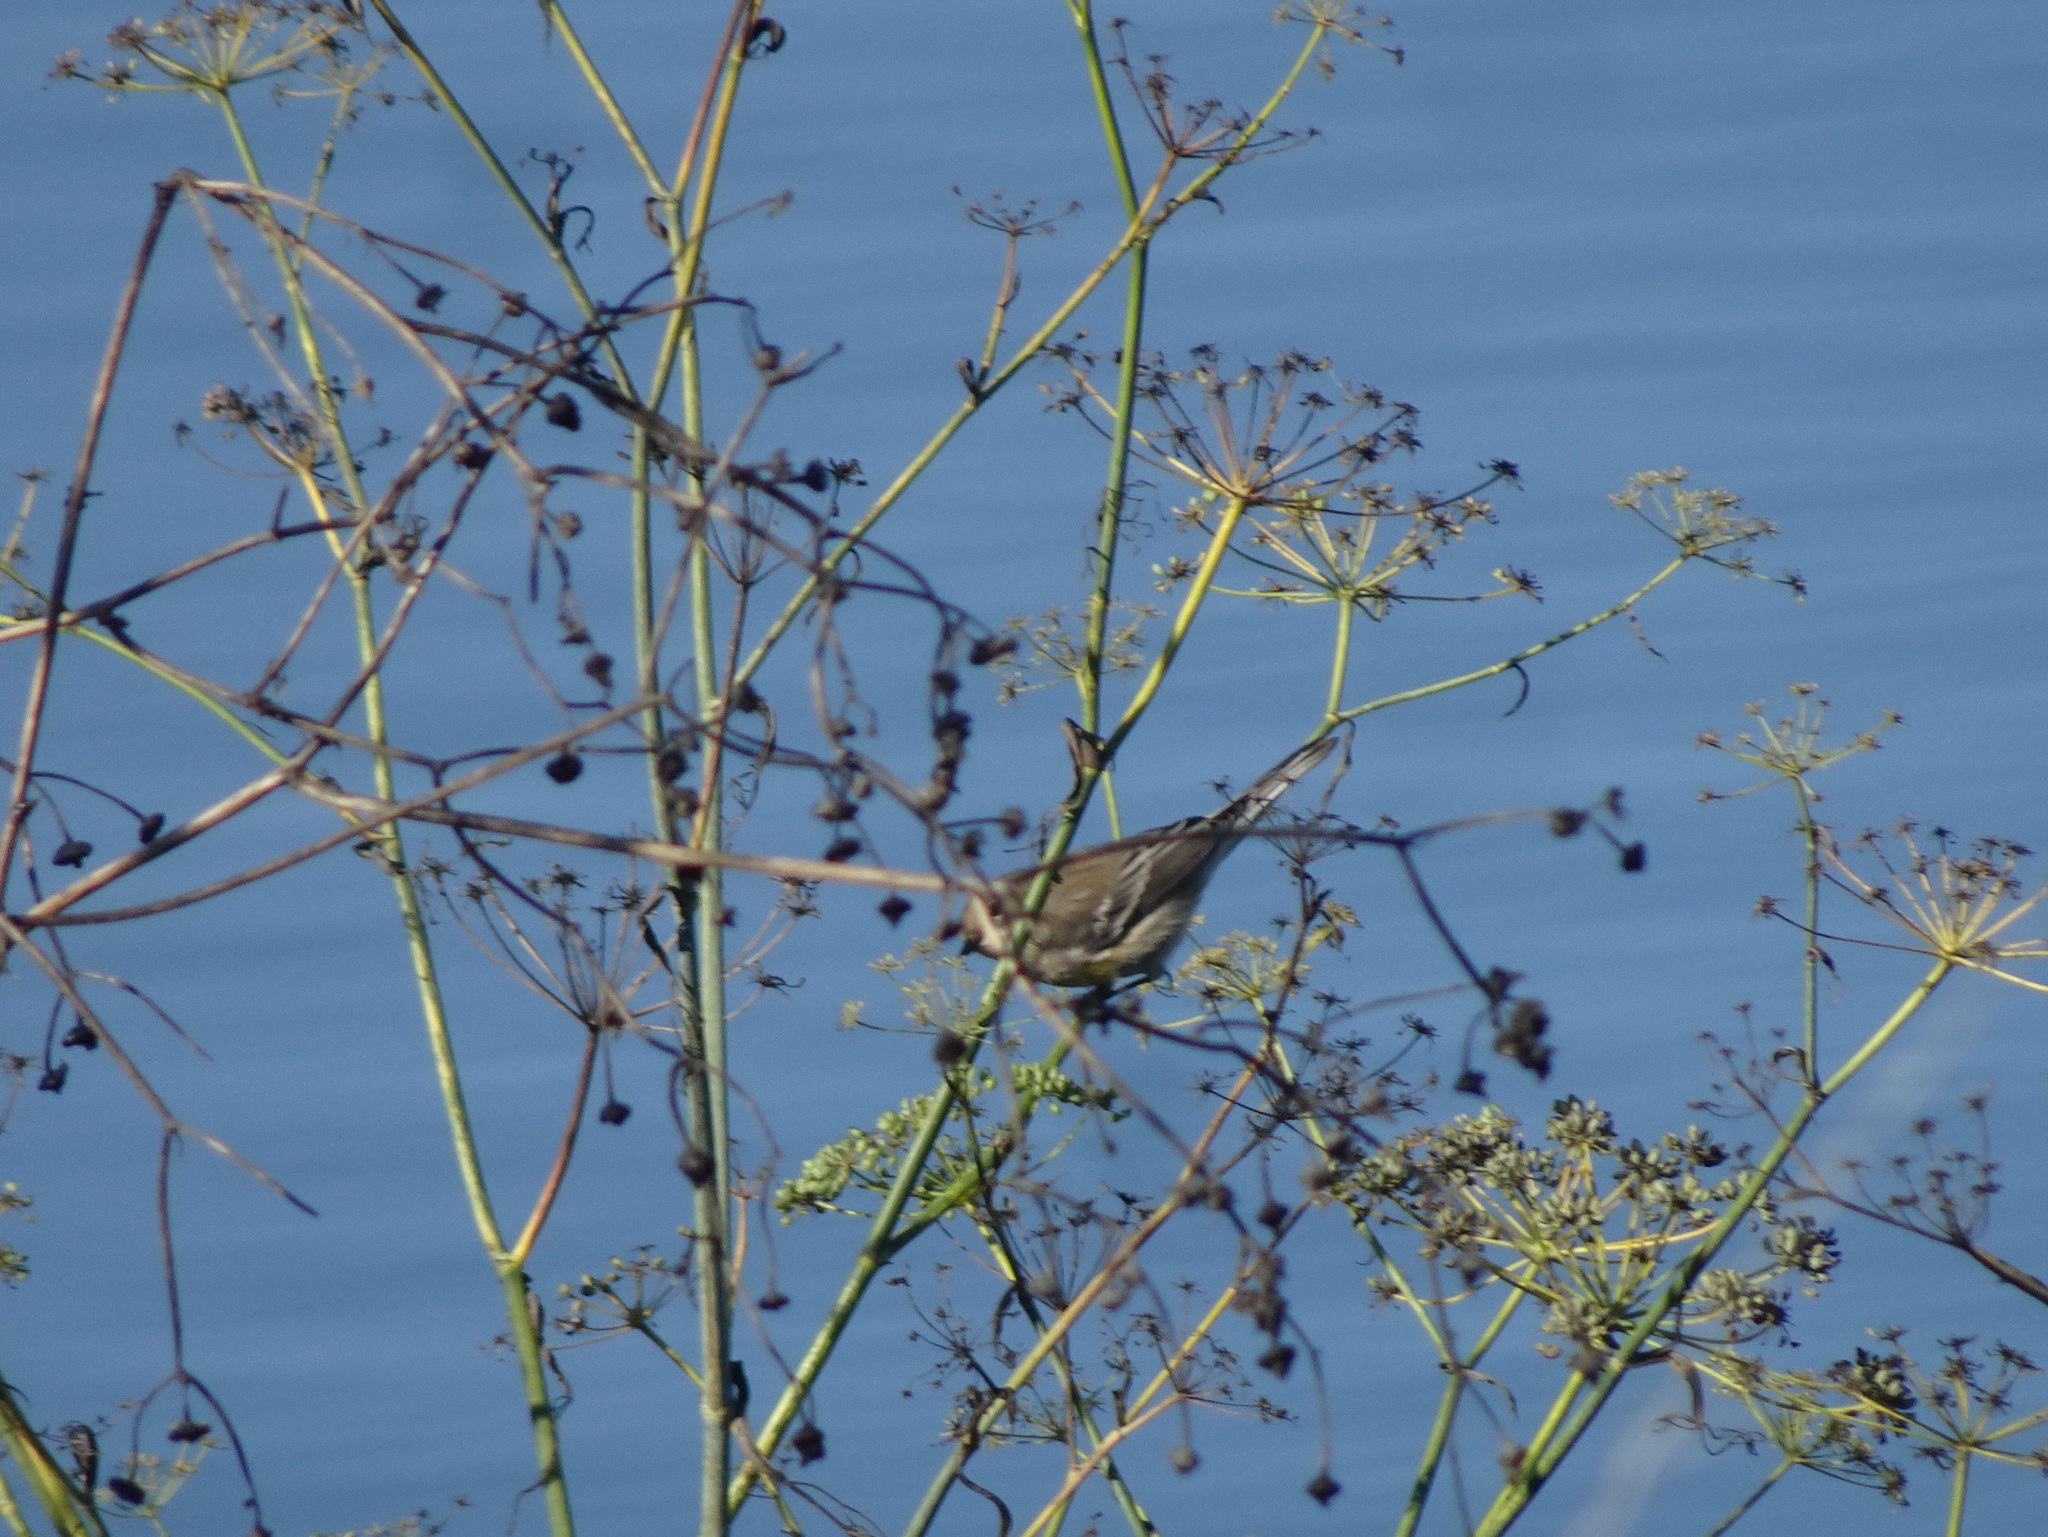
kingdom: Animalia
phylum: Chordata
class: Aves
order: Passeriformes
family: Parulidae
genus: Setophaga
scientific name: Setophaga coronata
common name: Myrtle warbler
